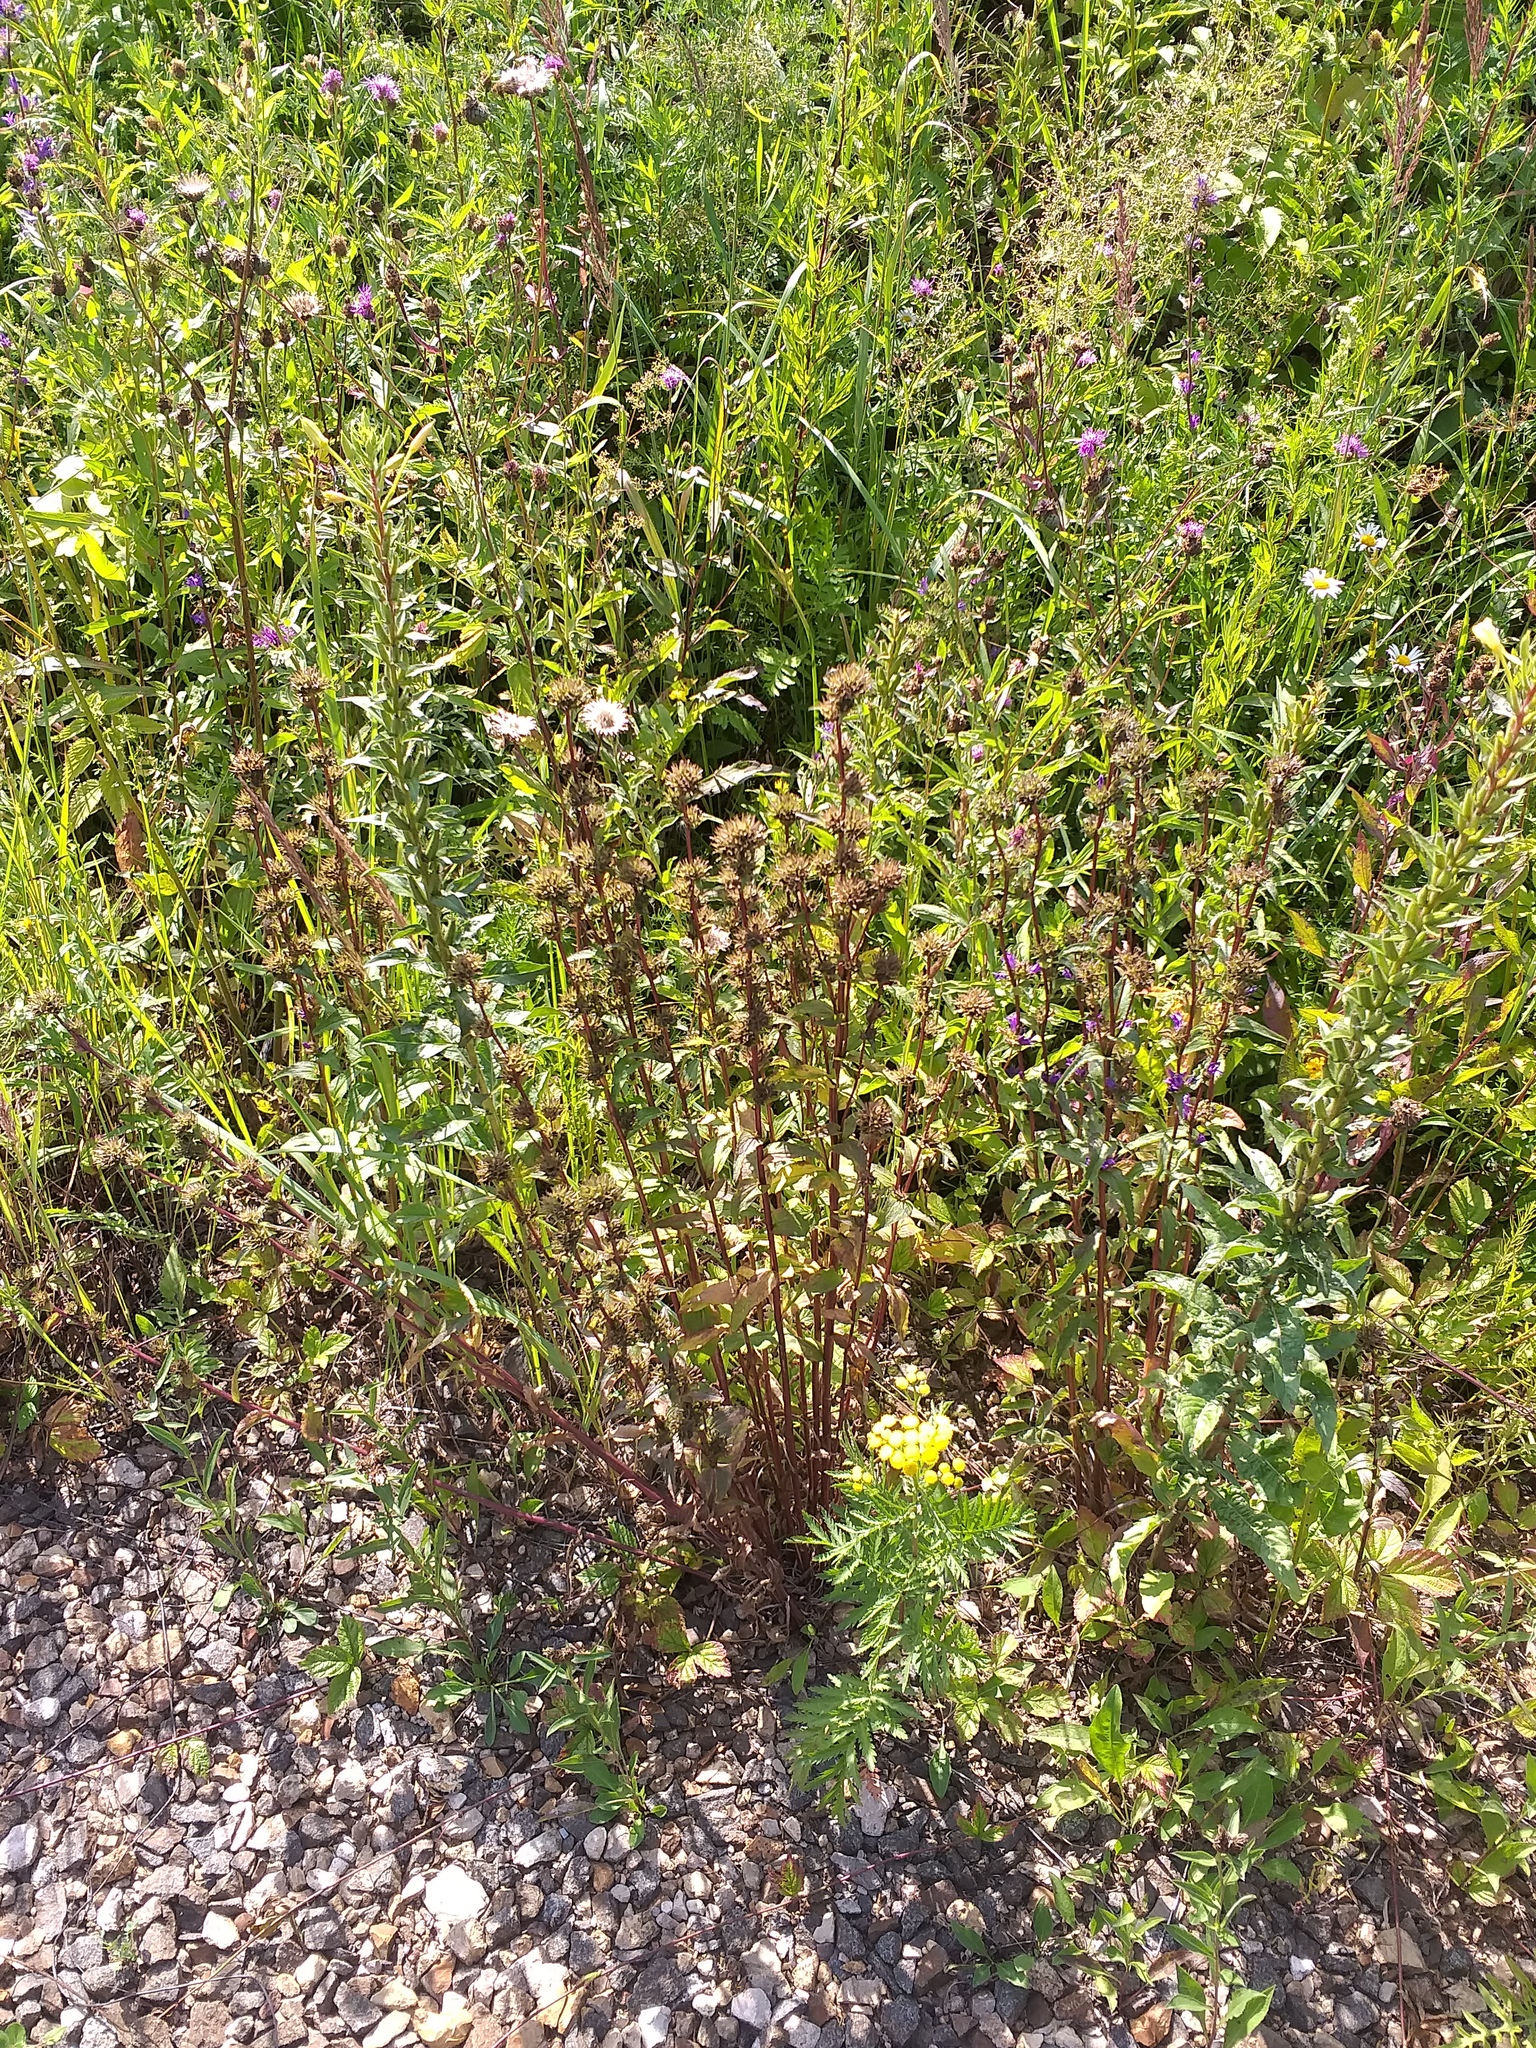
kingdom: Plantae
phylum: Tracheophyta
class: Magnoliopsida
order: Asterales
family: Campanulaceae
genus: Campanula
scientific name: Campanula glomerata
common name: Clustered bellflower
